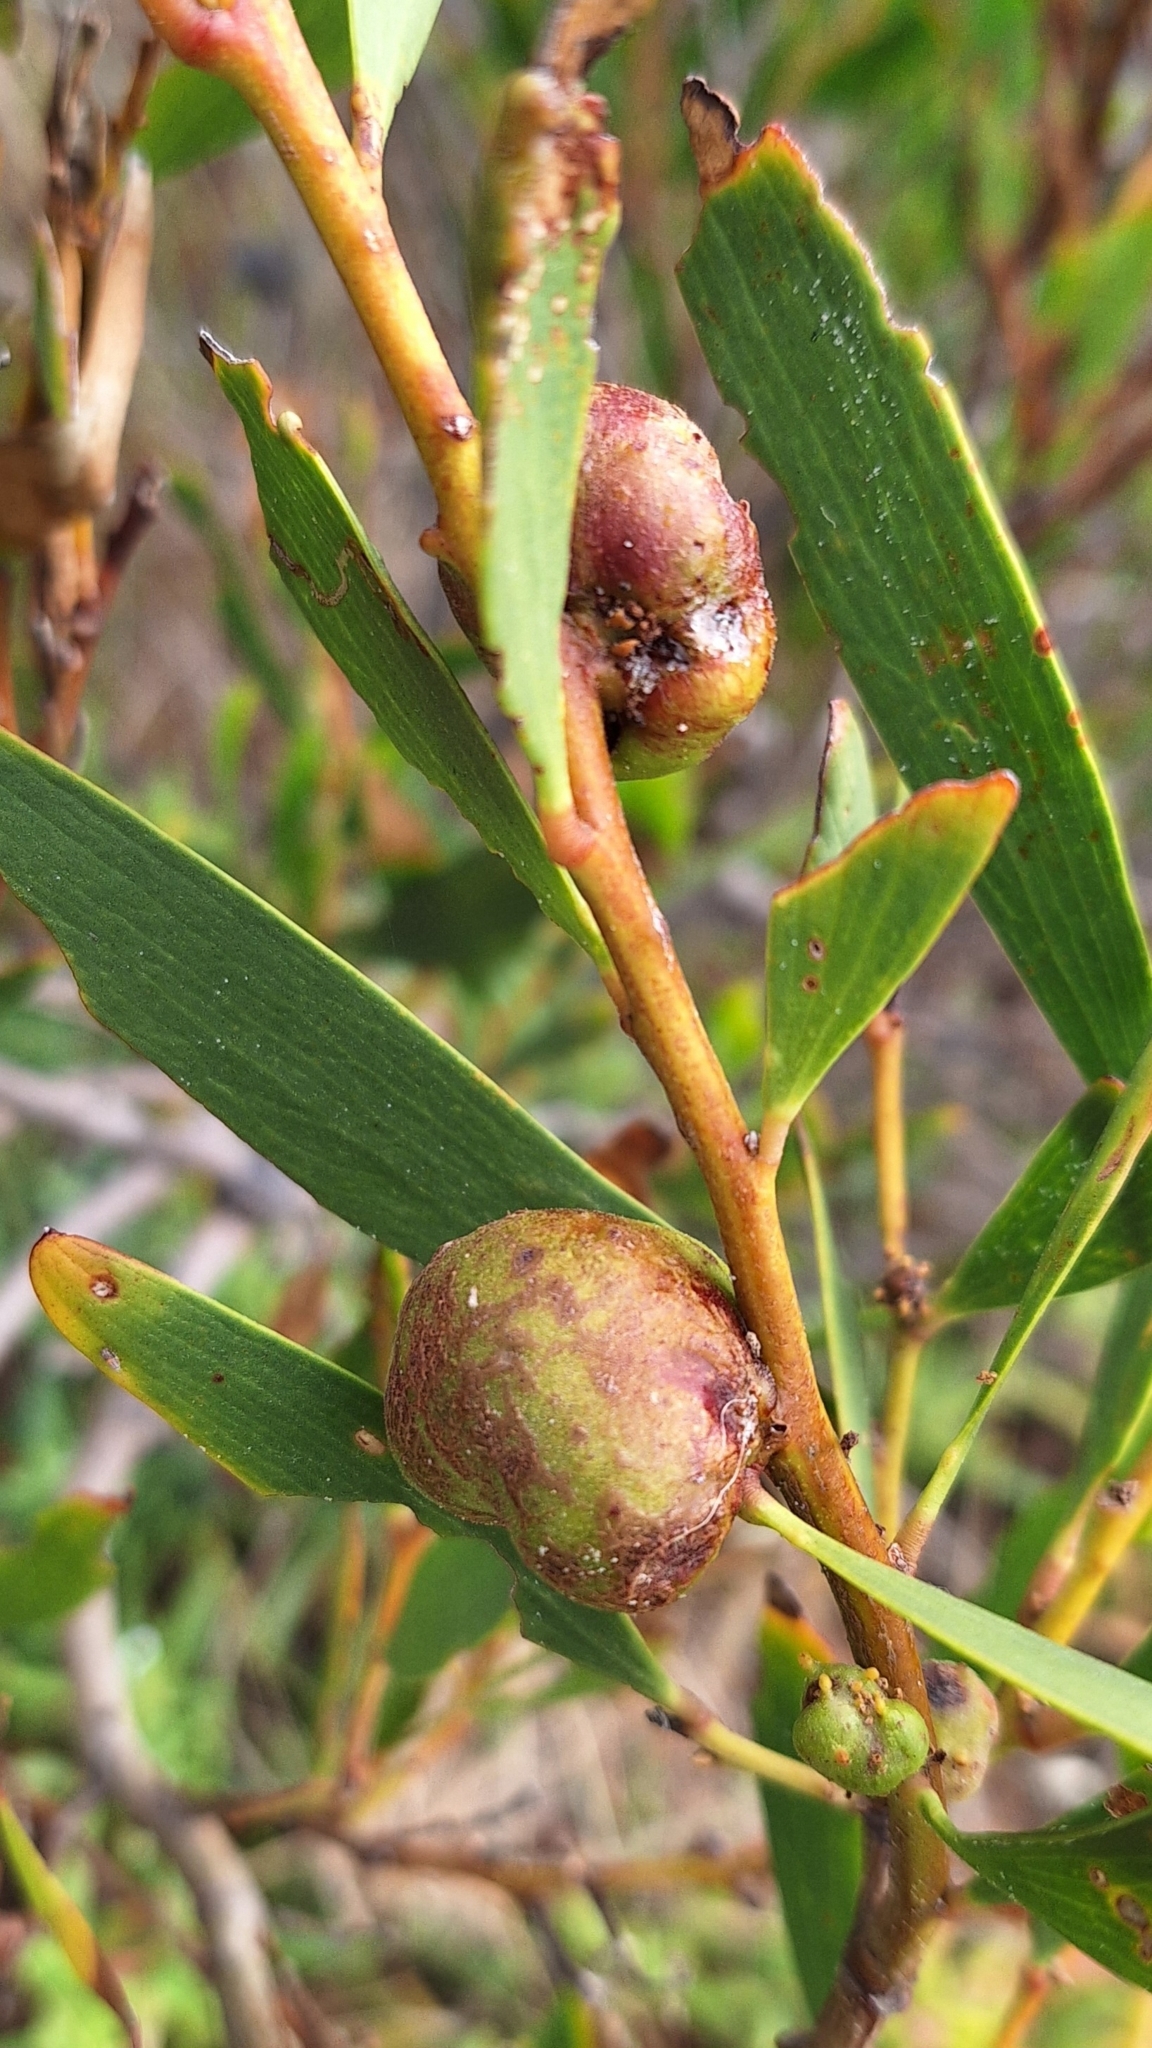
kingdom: Animalia
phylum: Arthropoda
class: Insecta
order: Hymenoptera
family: Pteromalidae
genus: Trichilogaster
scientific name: Trichilogaster acaciaelongifoliae
